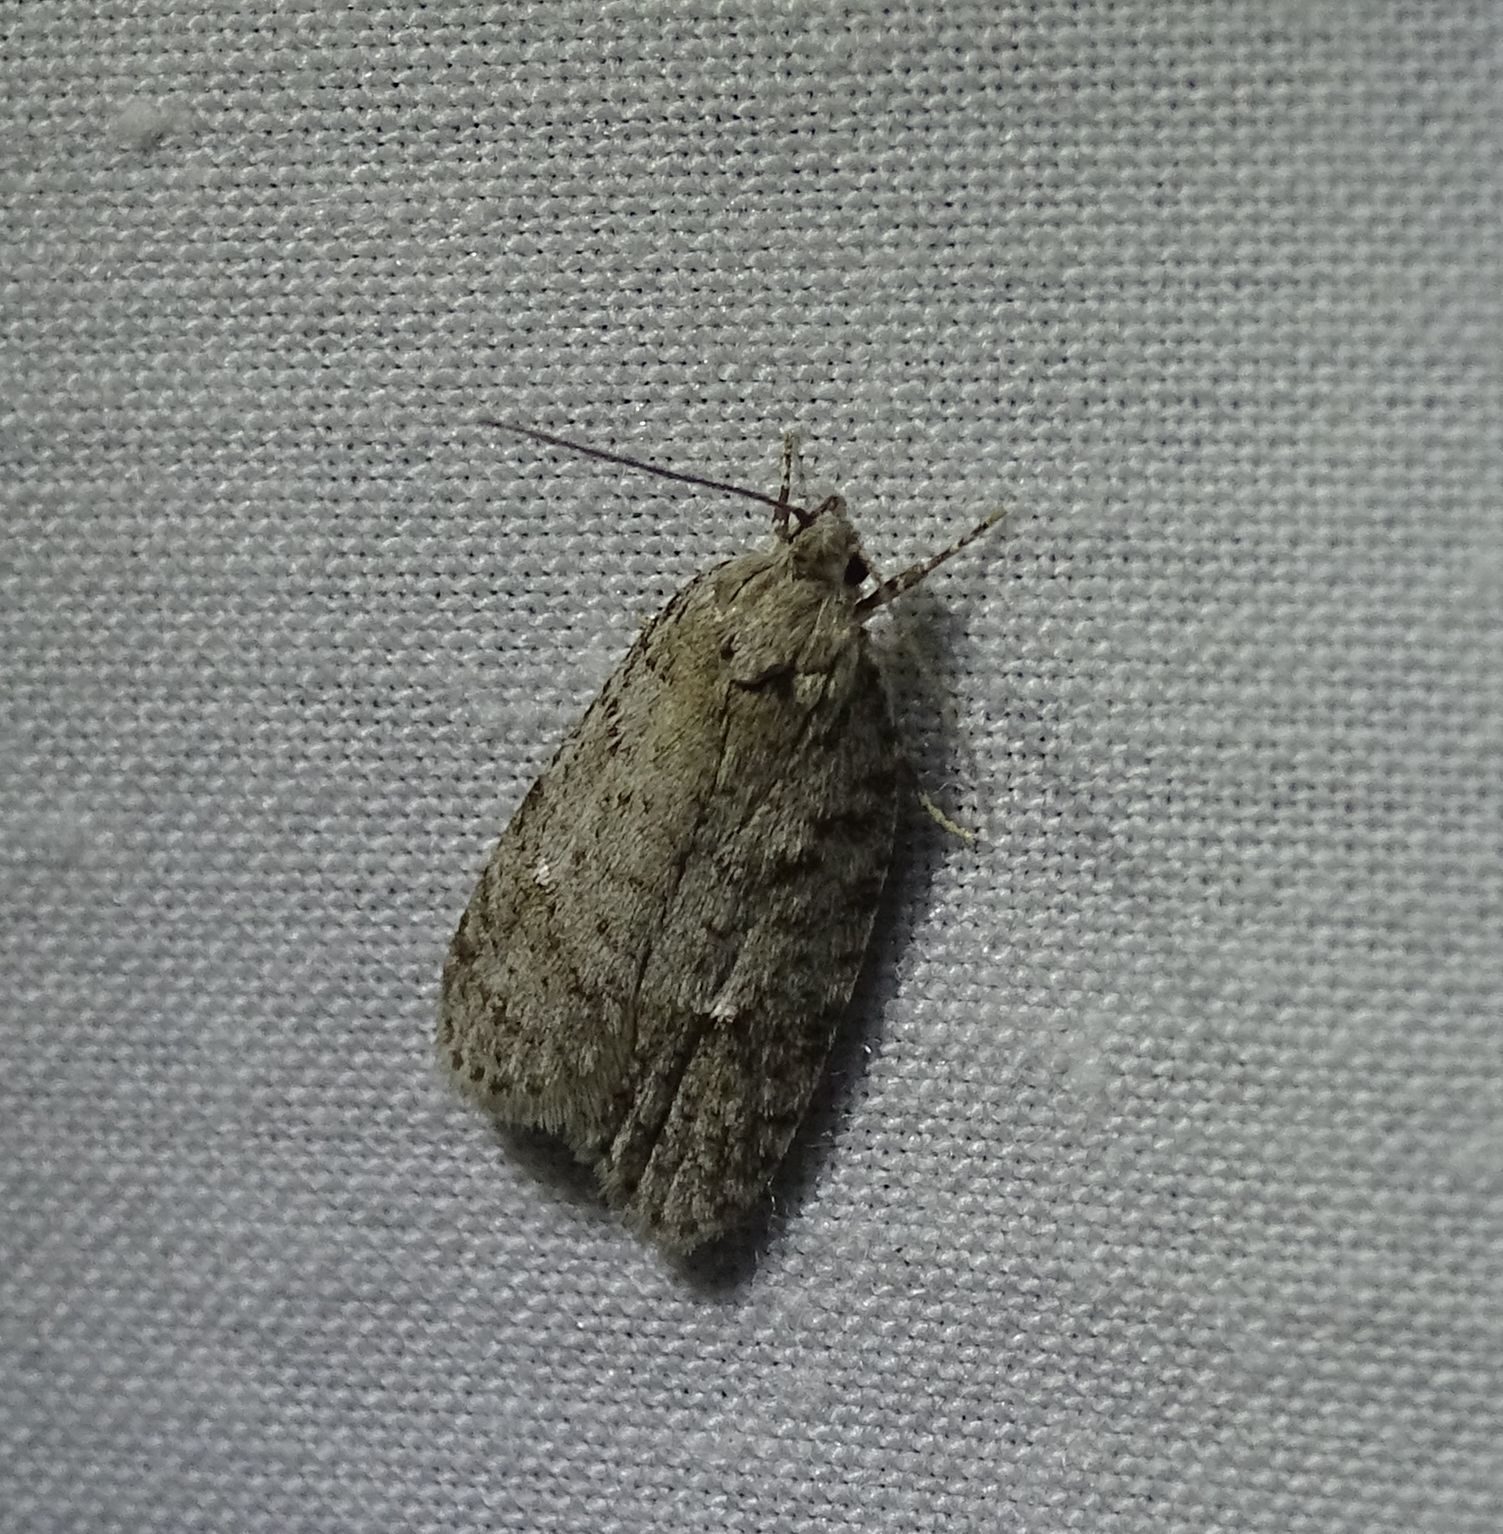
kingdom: Animalia
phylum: Arthropoda
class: Insecta
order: Lepidoptera
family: Depressariidae
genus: Bibarrambla
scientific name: Bibarrambla allenella
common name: Bog bibarrambla moth
